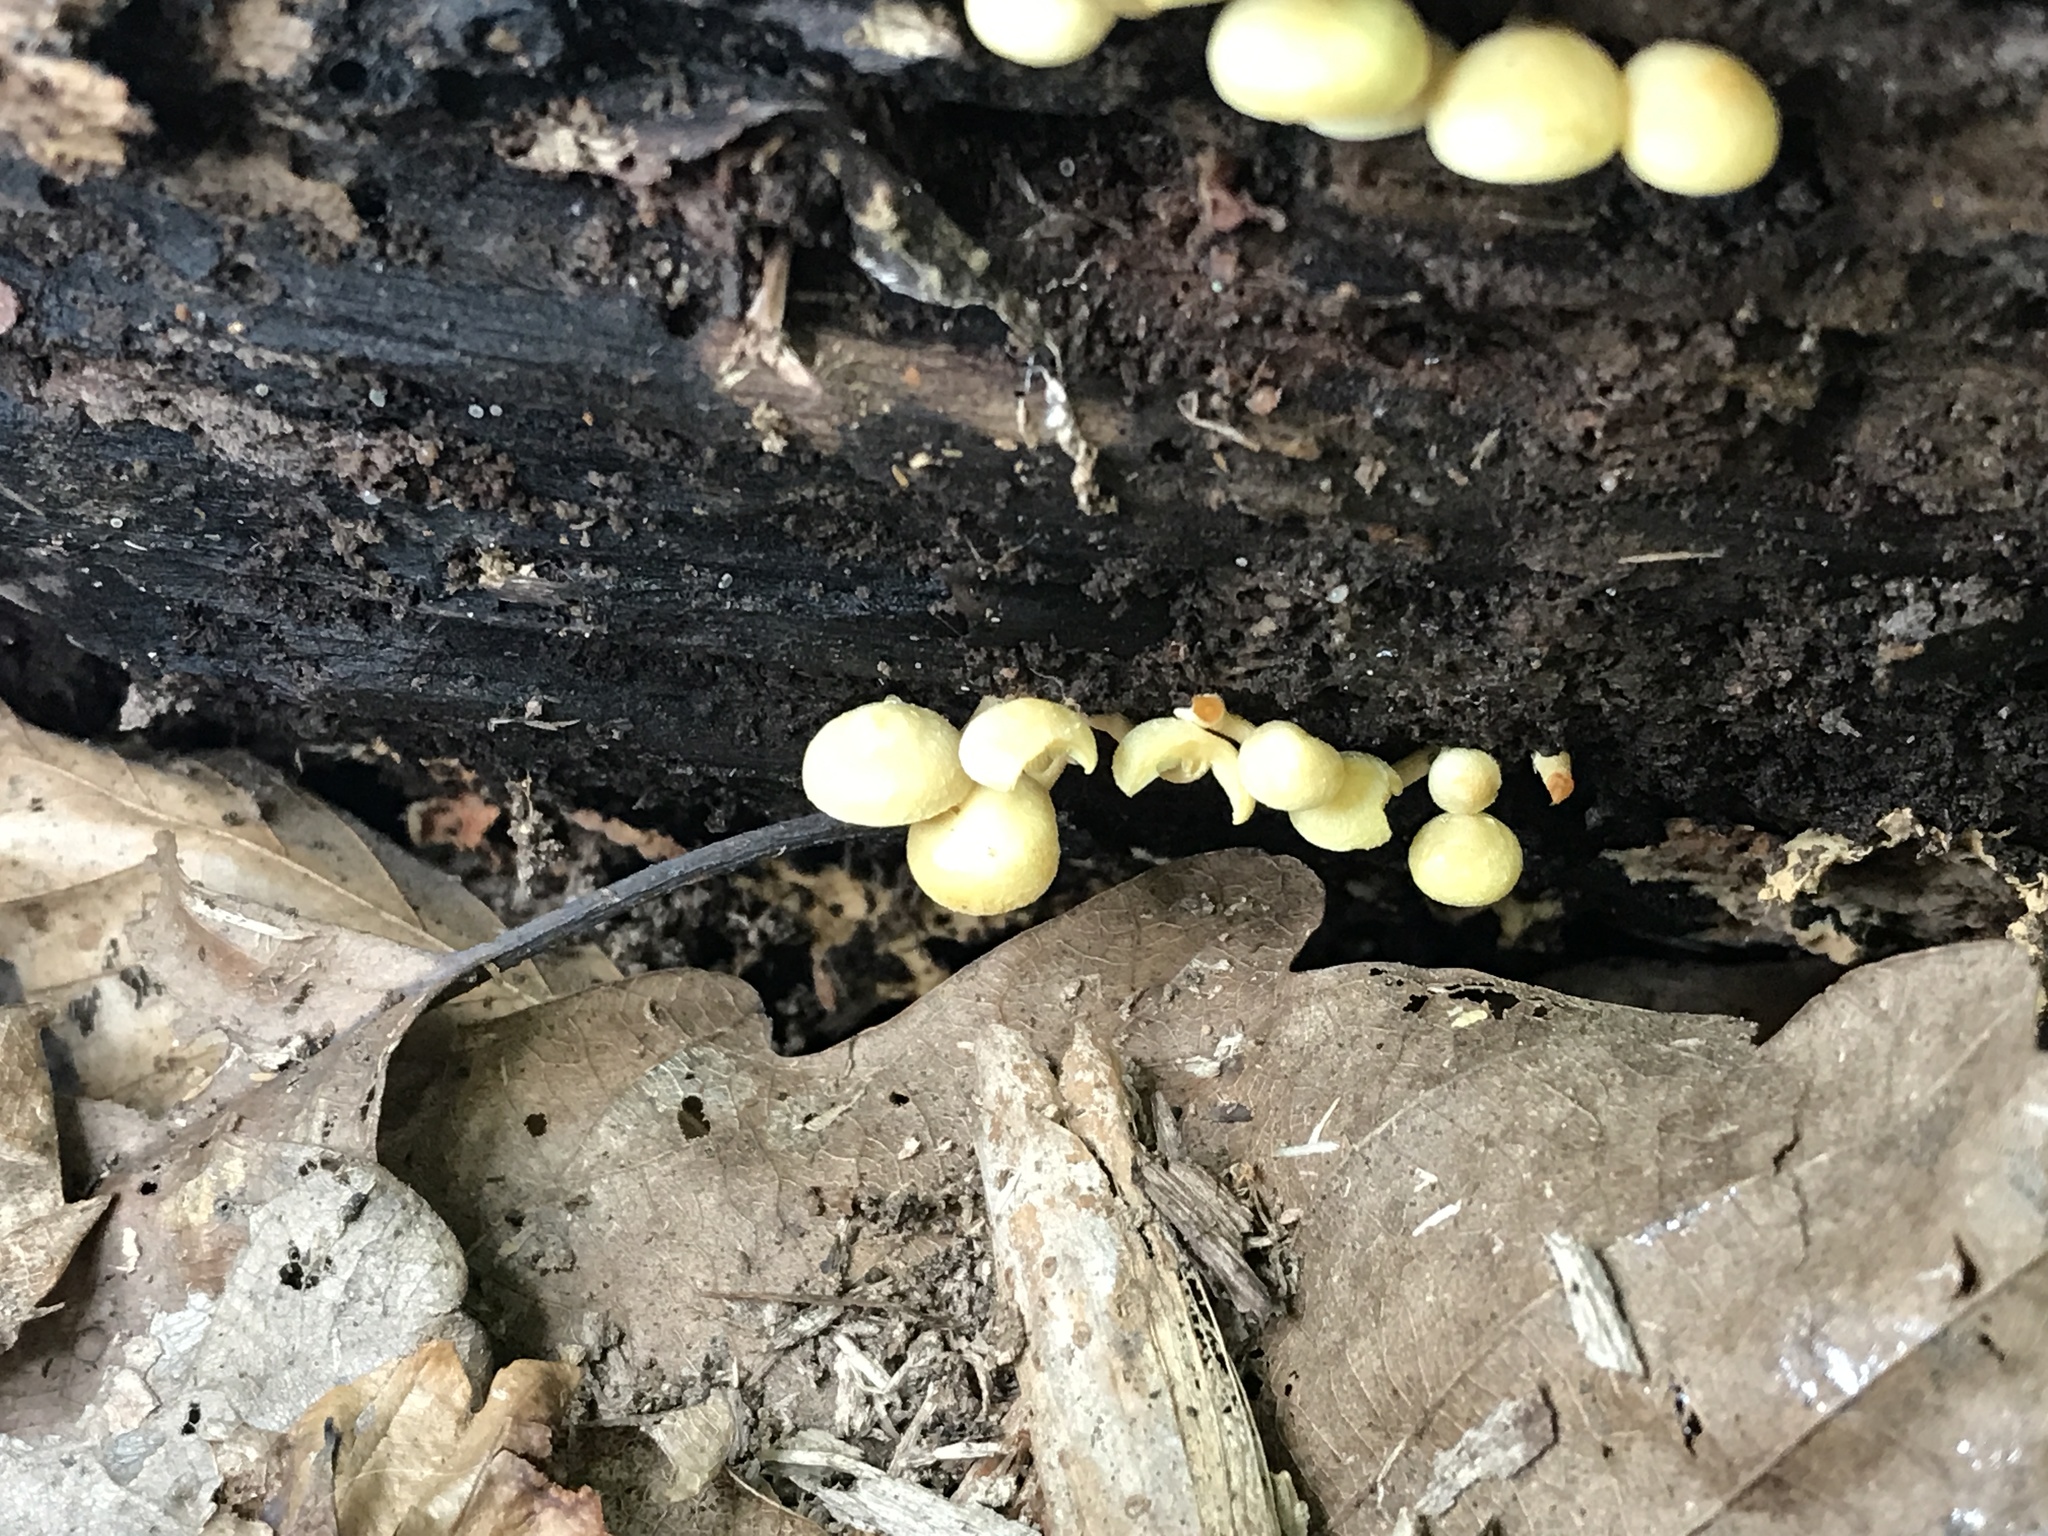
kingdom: Fungi
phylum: Basidiomycota
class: Agaricomycetes
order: Agaricales
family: Strophariaceae
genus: Hypholoma
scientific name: Hypholoma fasciculare
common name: Sulphur tuft
